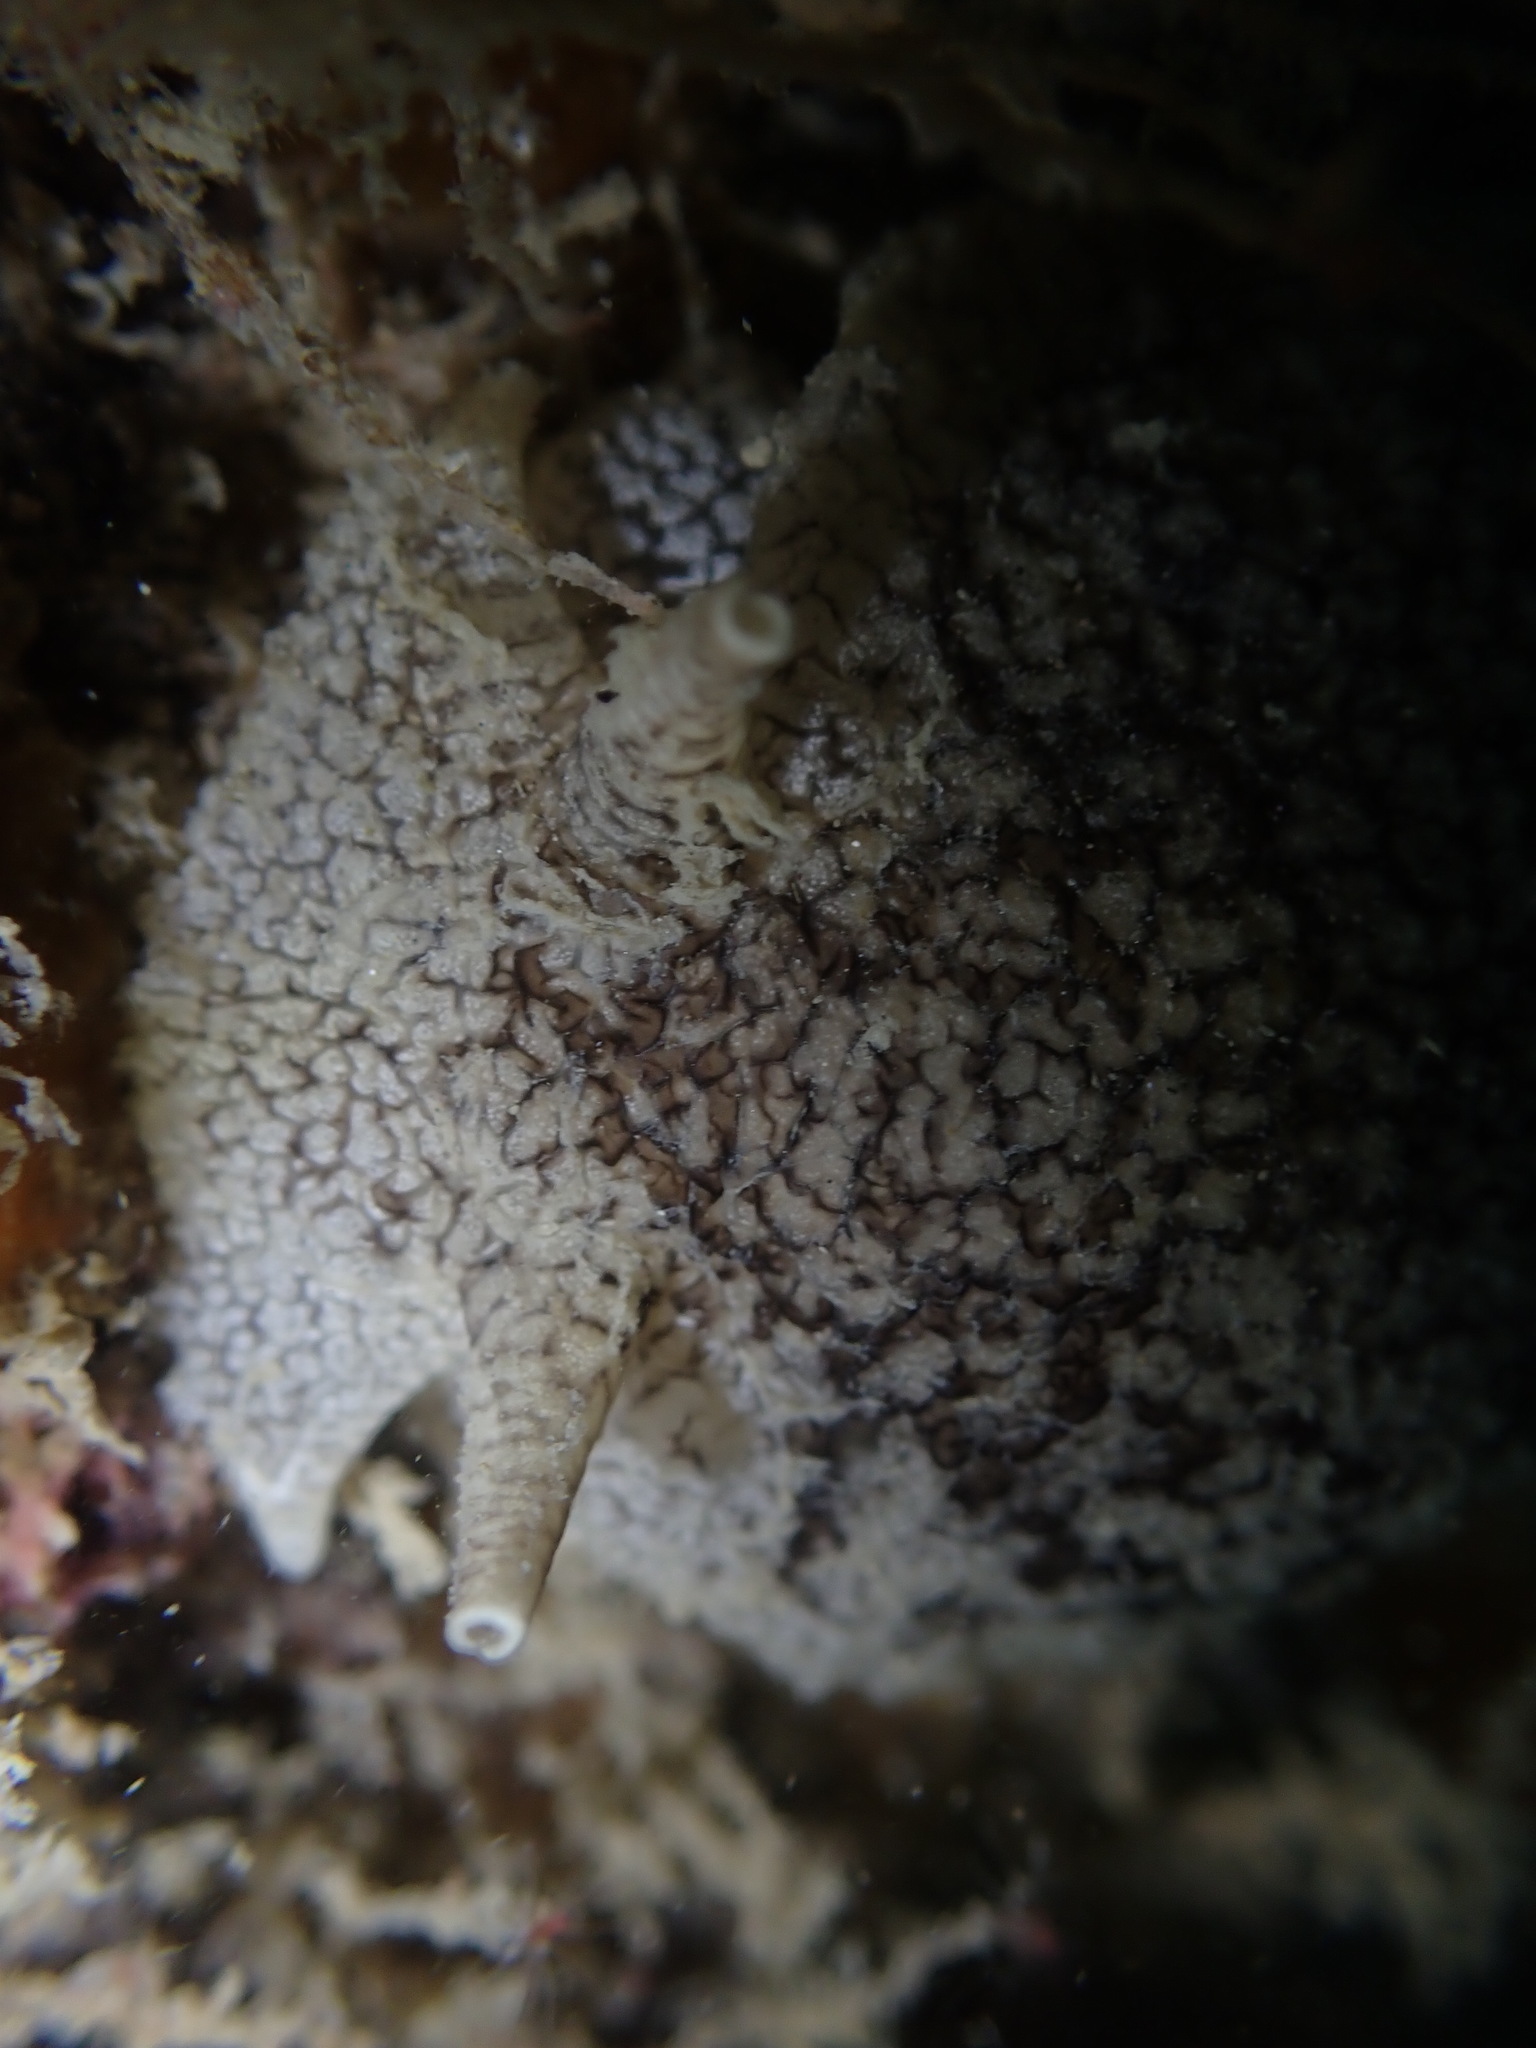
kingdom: Animalia
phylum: Mollusca
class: Gastropoda
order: Pleurobranchida
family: Pleurobranchaeidae
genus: Pleurobranchaea
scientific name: Pleurobranchaea maculata
